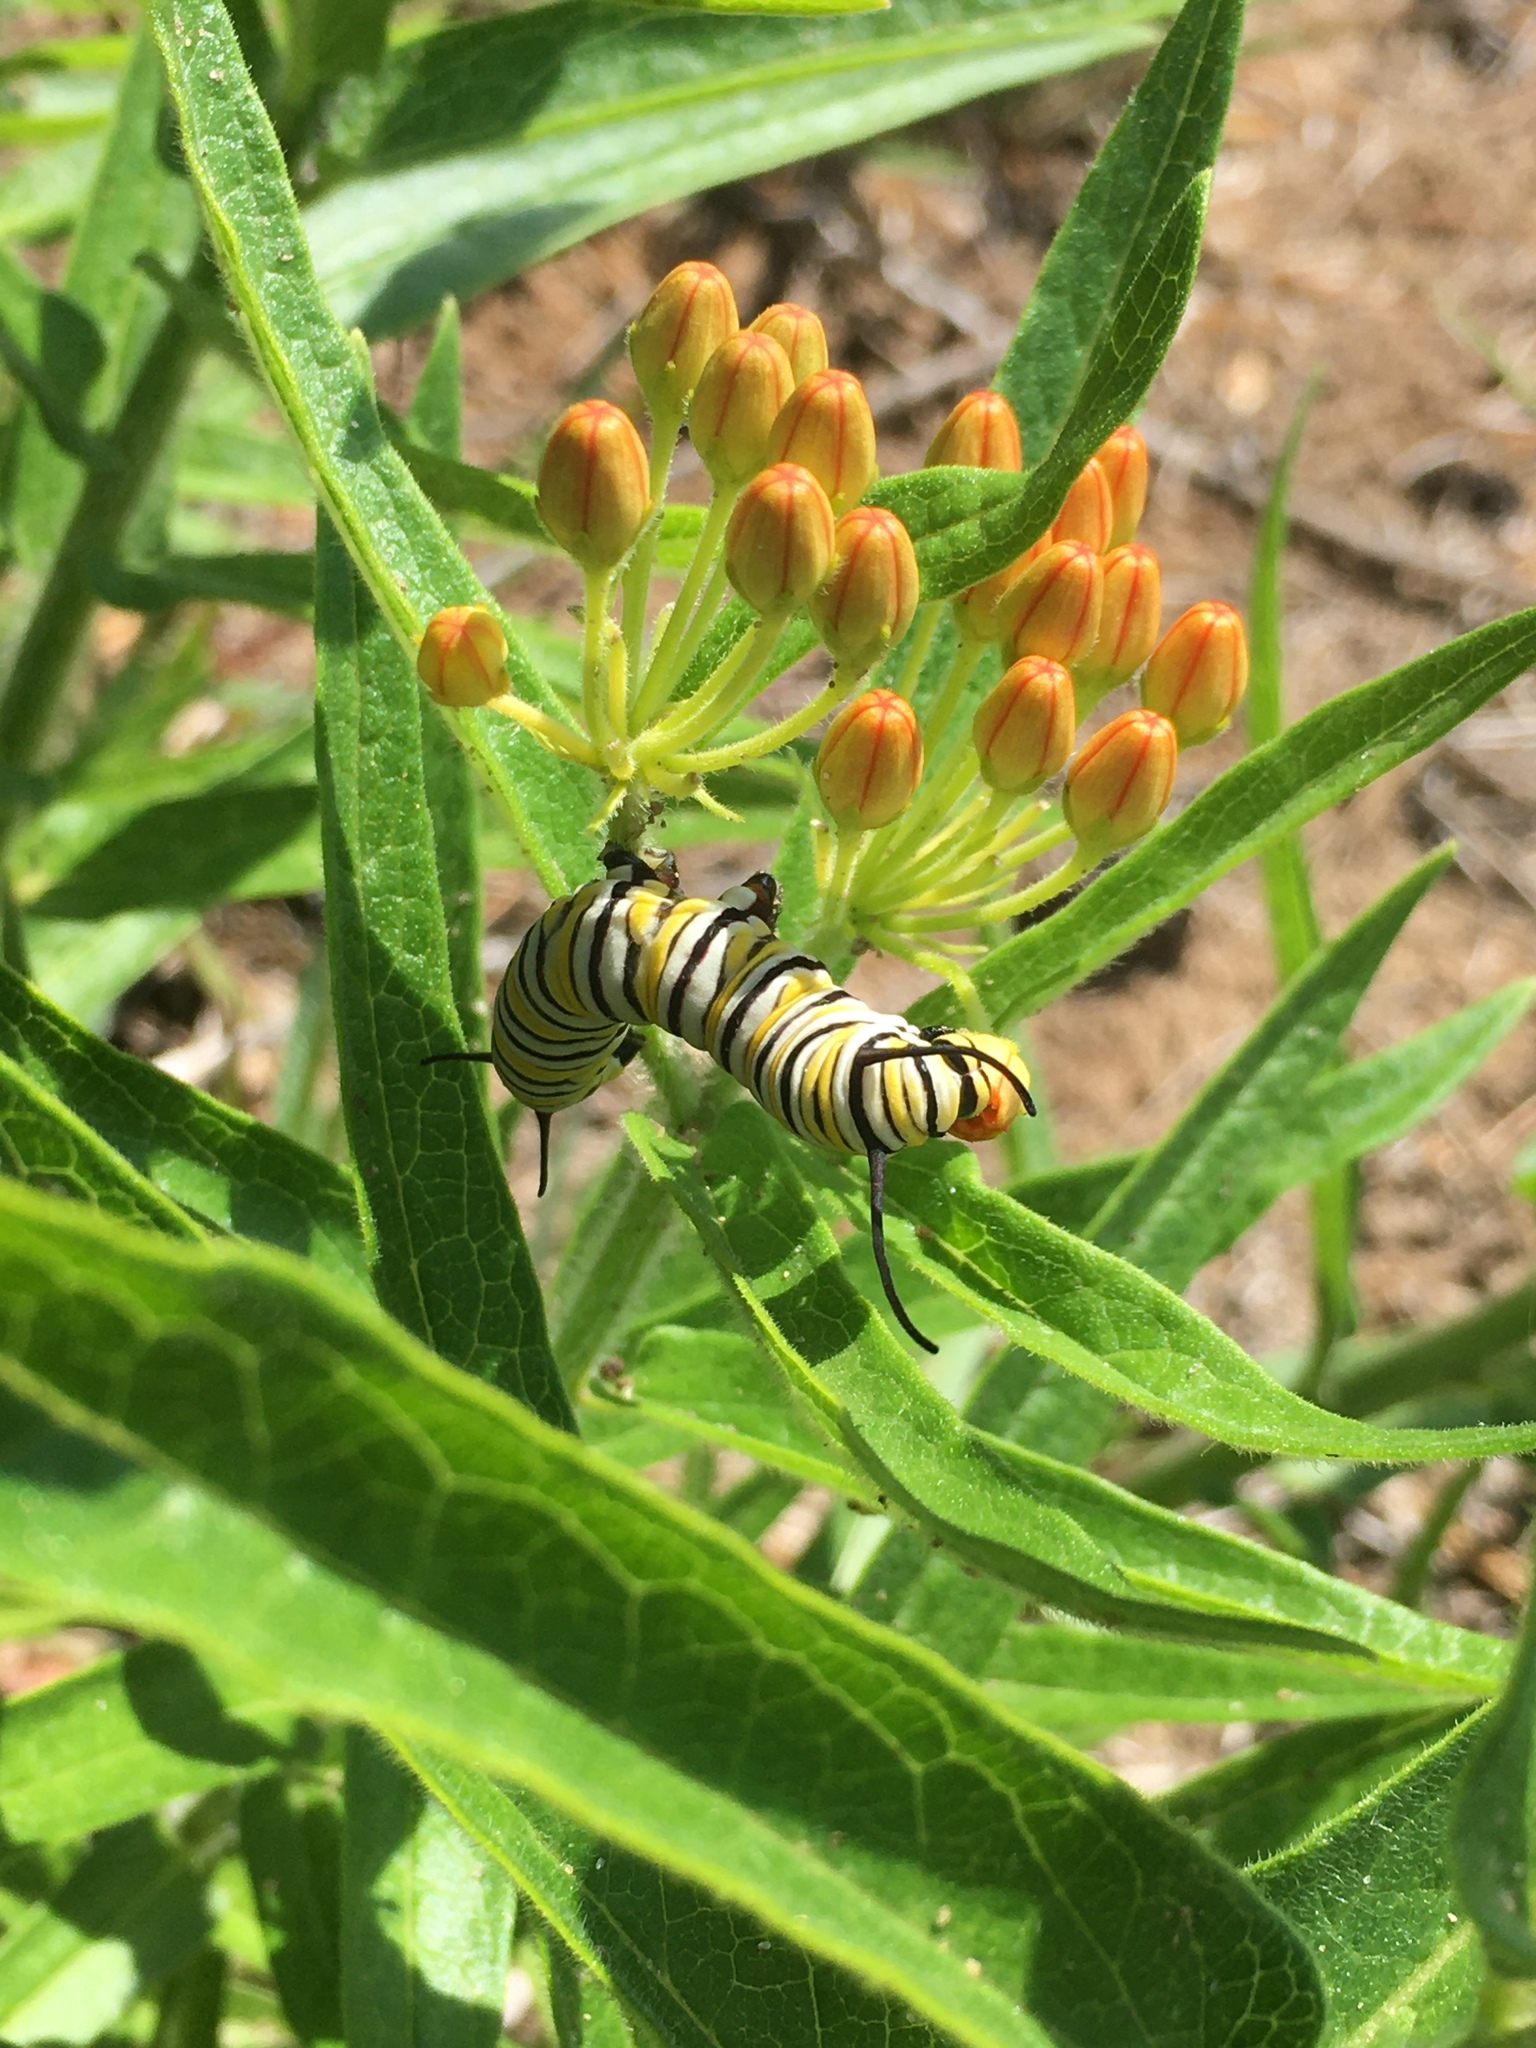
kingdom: Animalia
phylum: Arthropoda
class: Insecta
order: Lepidoptera
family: Nymphalidae
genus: Danaus
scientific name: Danaus plexippus
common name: Monarch
